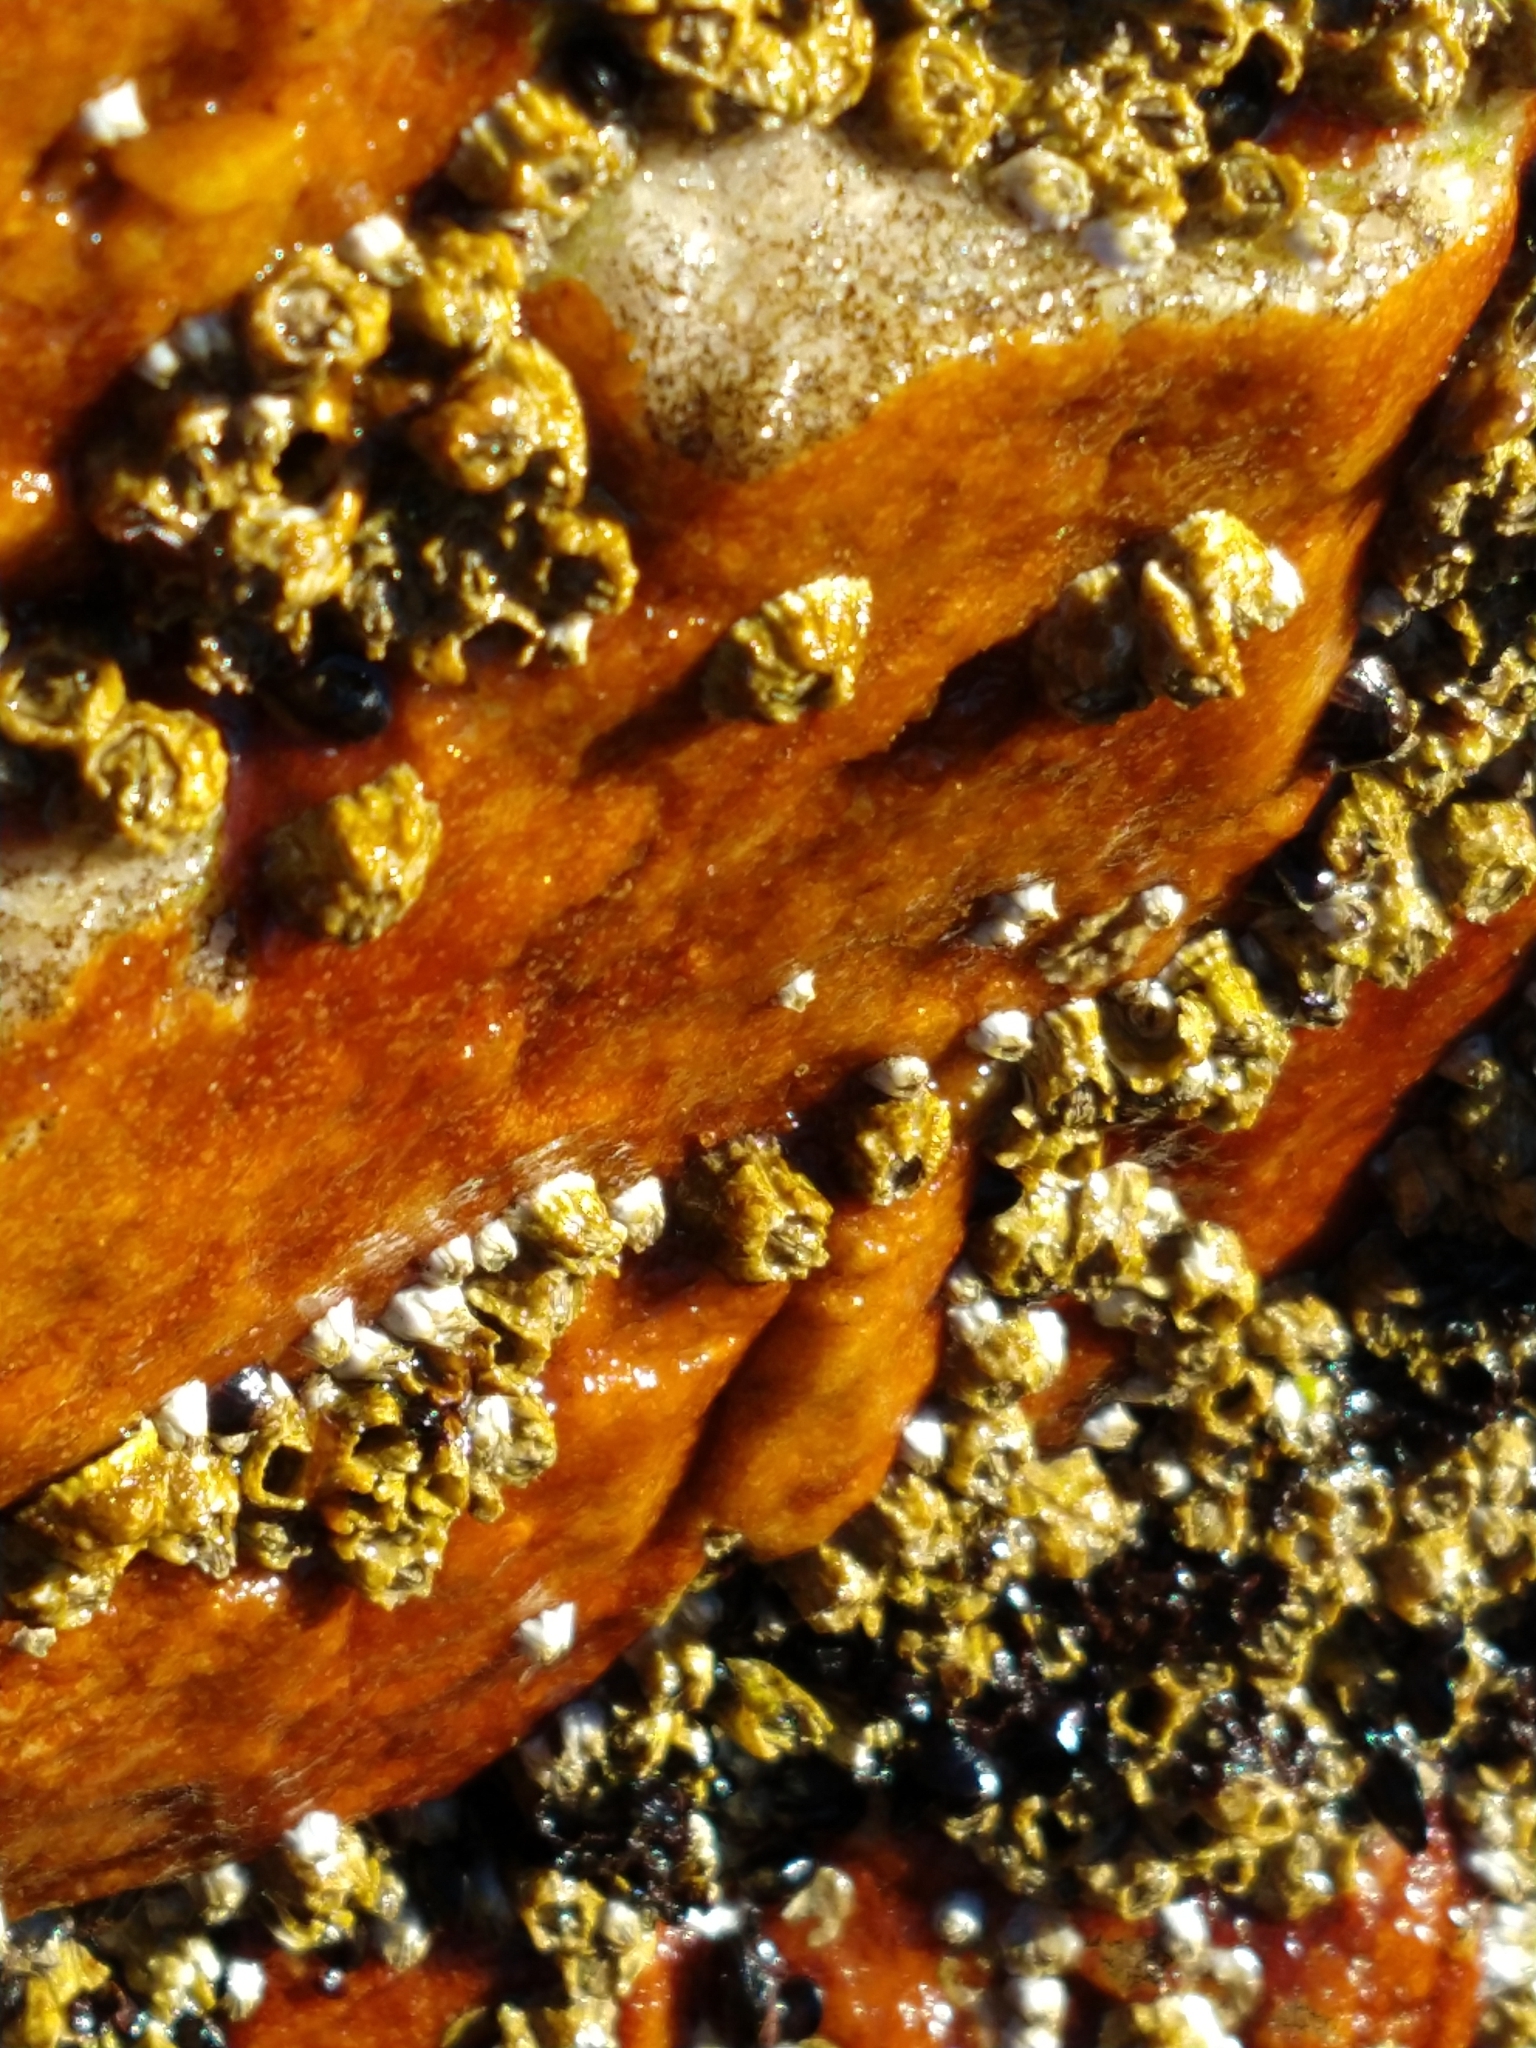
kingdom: Animalia
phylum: Arthropoda
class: Maxillopoda
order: Sessilia
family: Balanidae
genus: Balanus
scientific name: Balanus glandula
